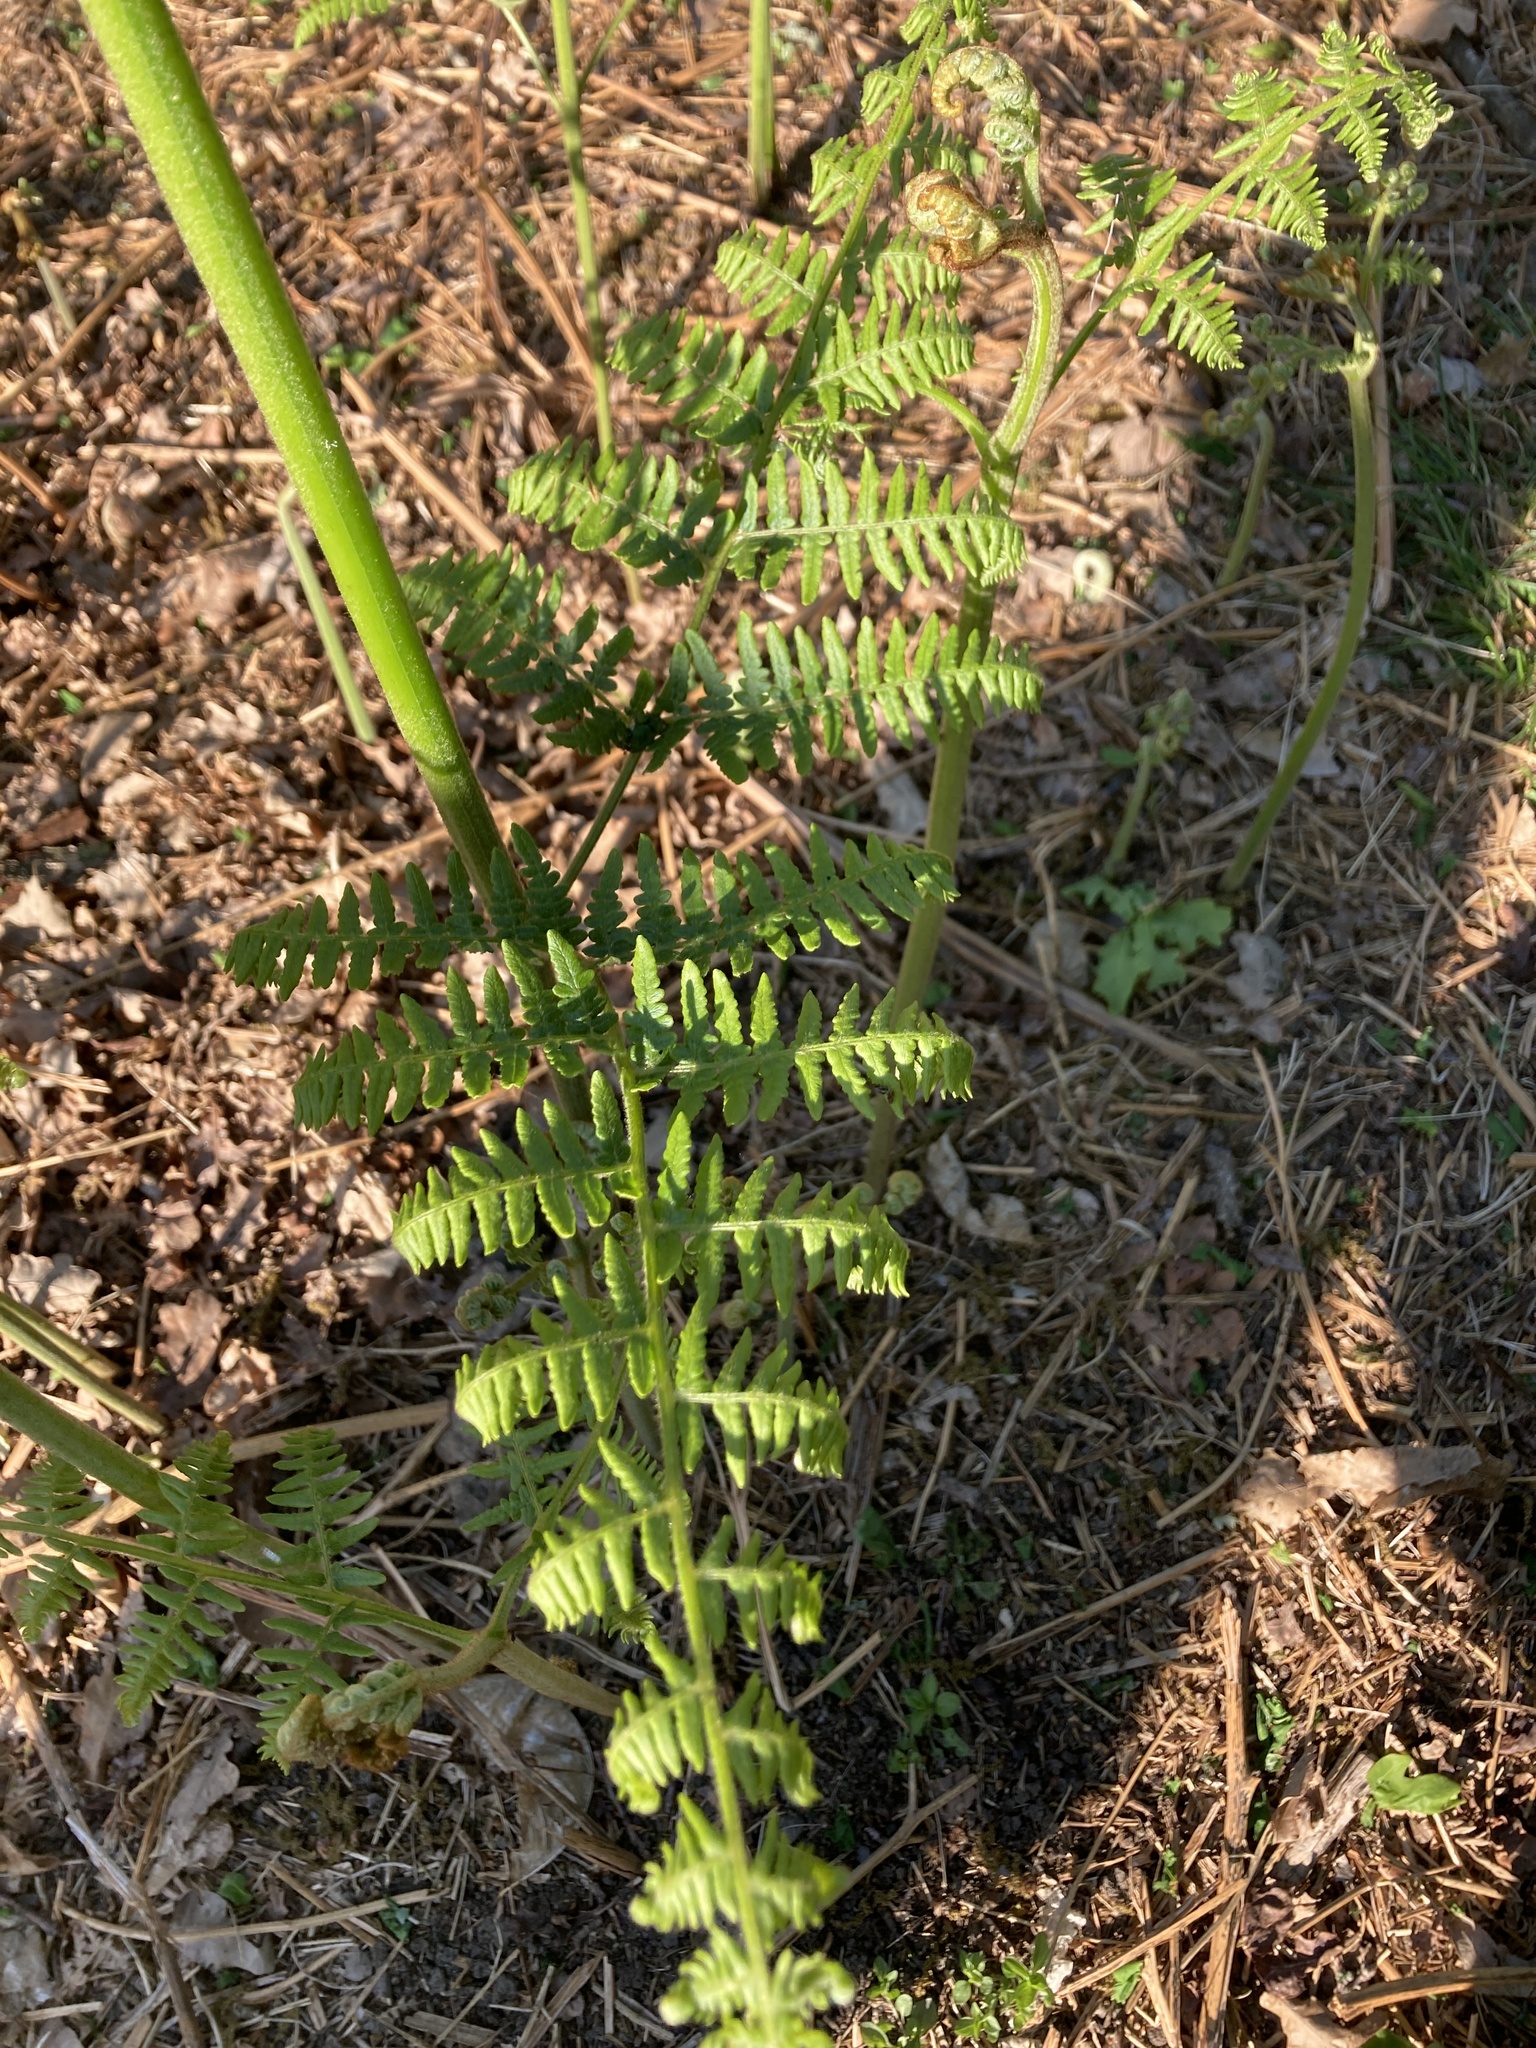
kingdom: Plantae
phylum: Tracheophyta
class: Polypodiopsida
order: Polypodiales
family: Dennstaedtiaceae
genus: Pteridium
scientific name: Pteridium aquilinum
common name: Bracken
